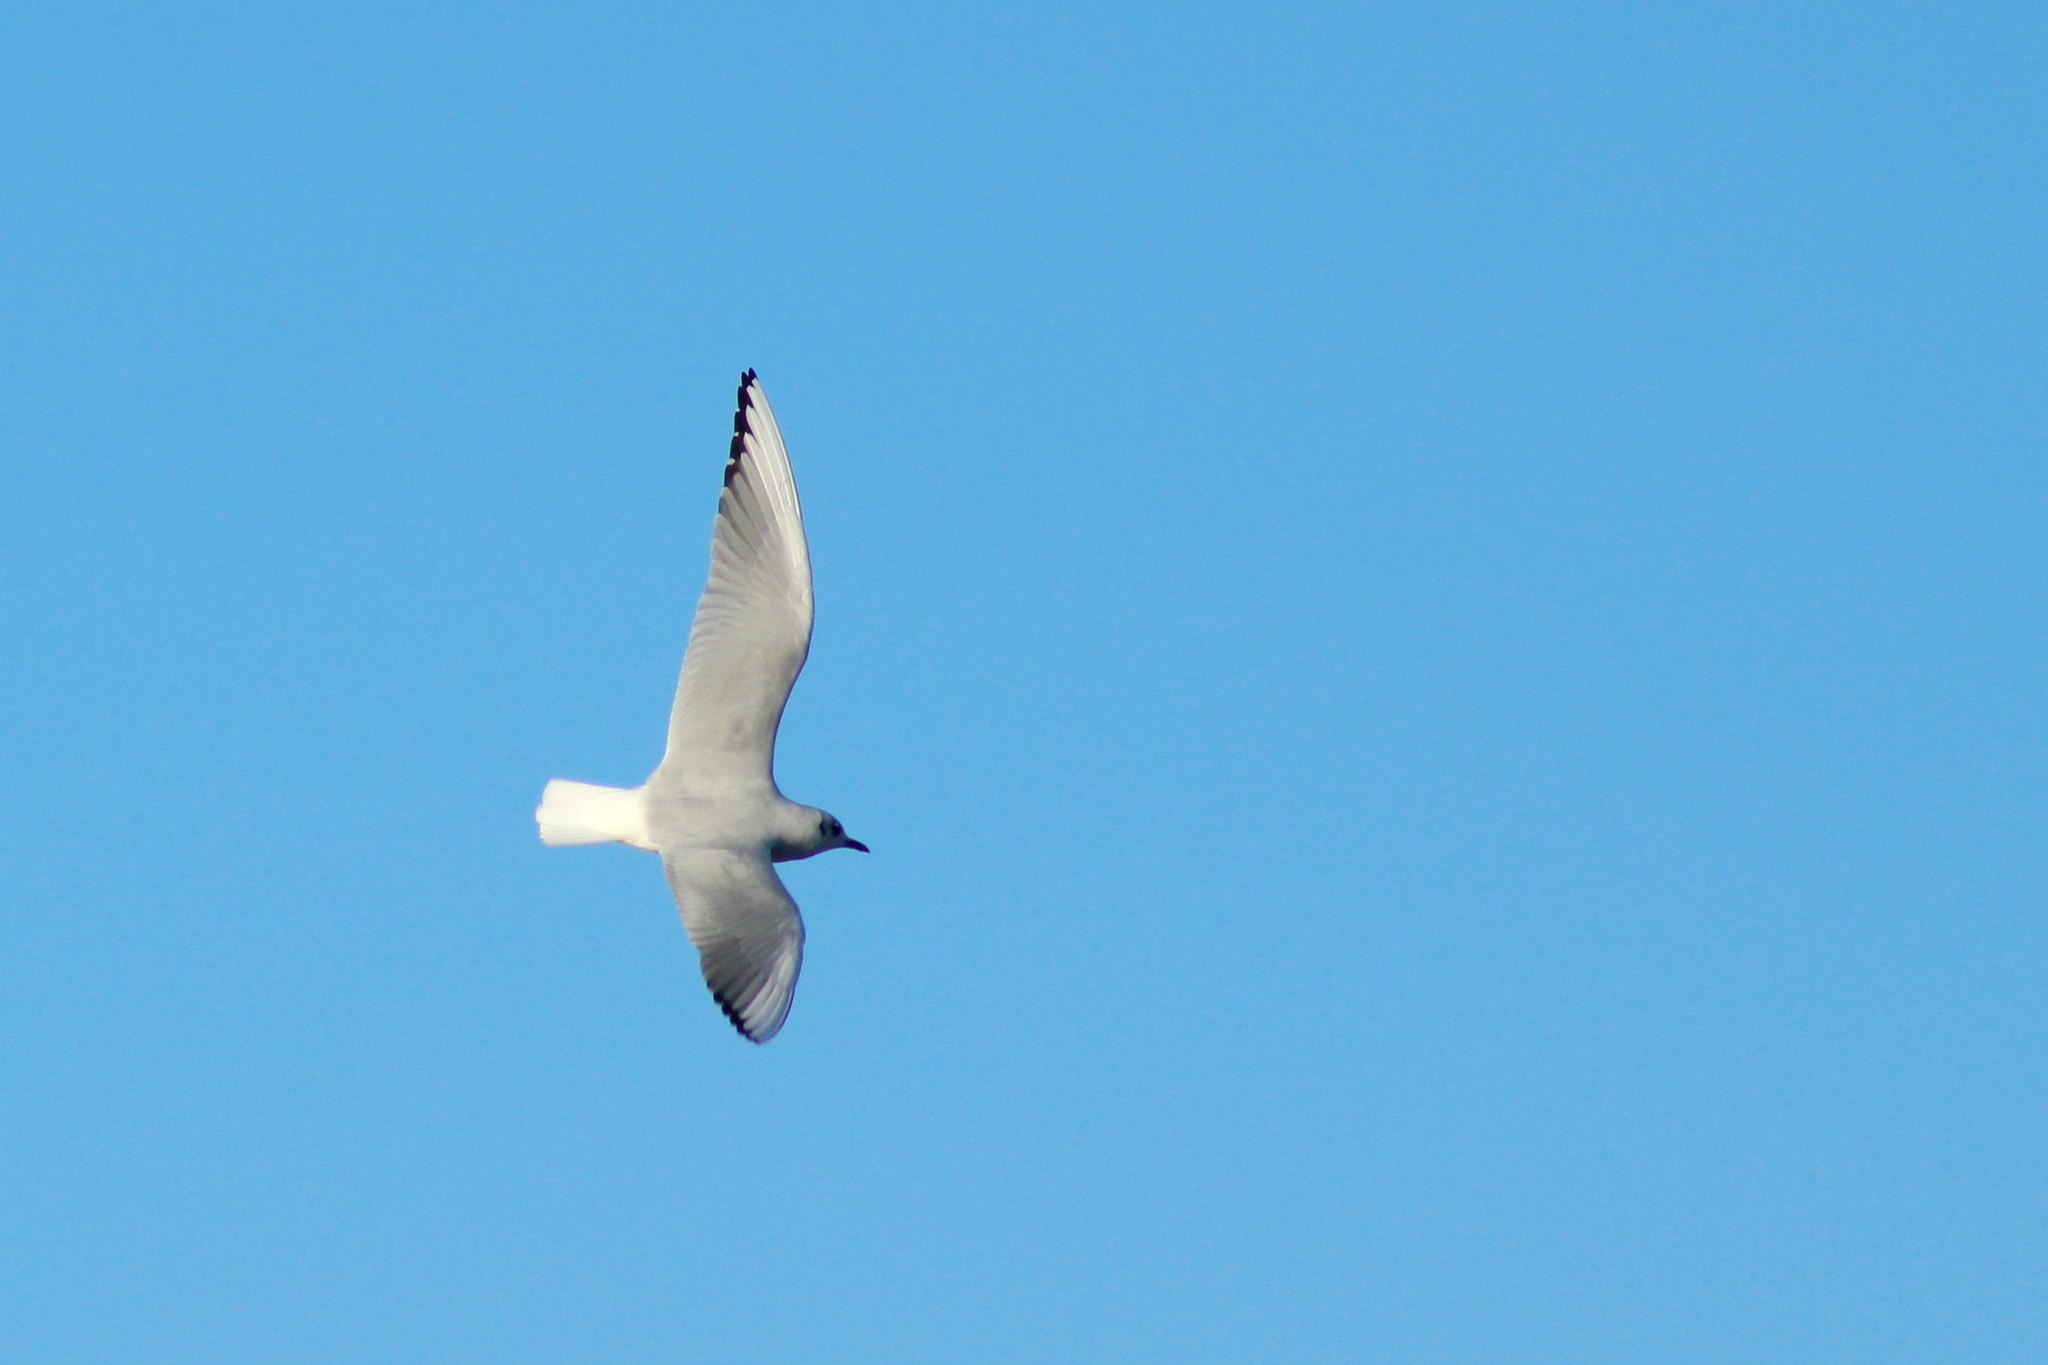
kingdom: Animalia
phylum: Chordata
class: Aves
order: Charadriiformes
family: Laridae
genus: Chroicocephalus
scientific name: Chroicocephalus ridibundus
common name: Black-headed gull
